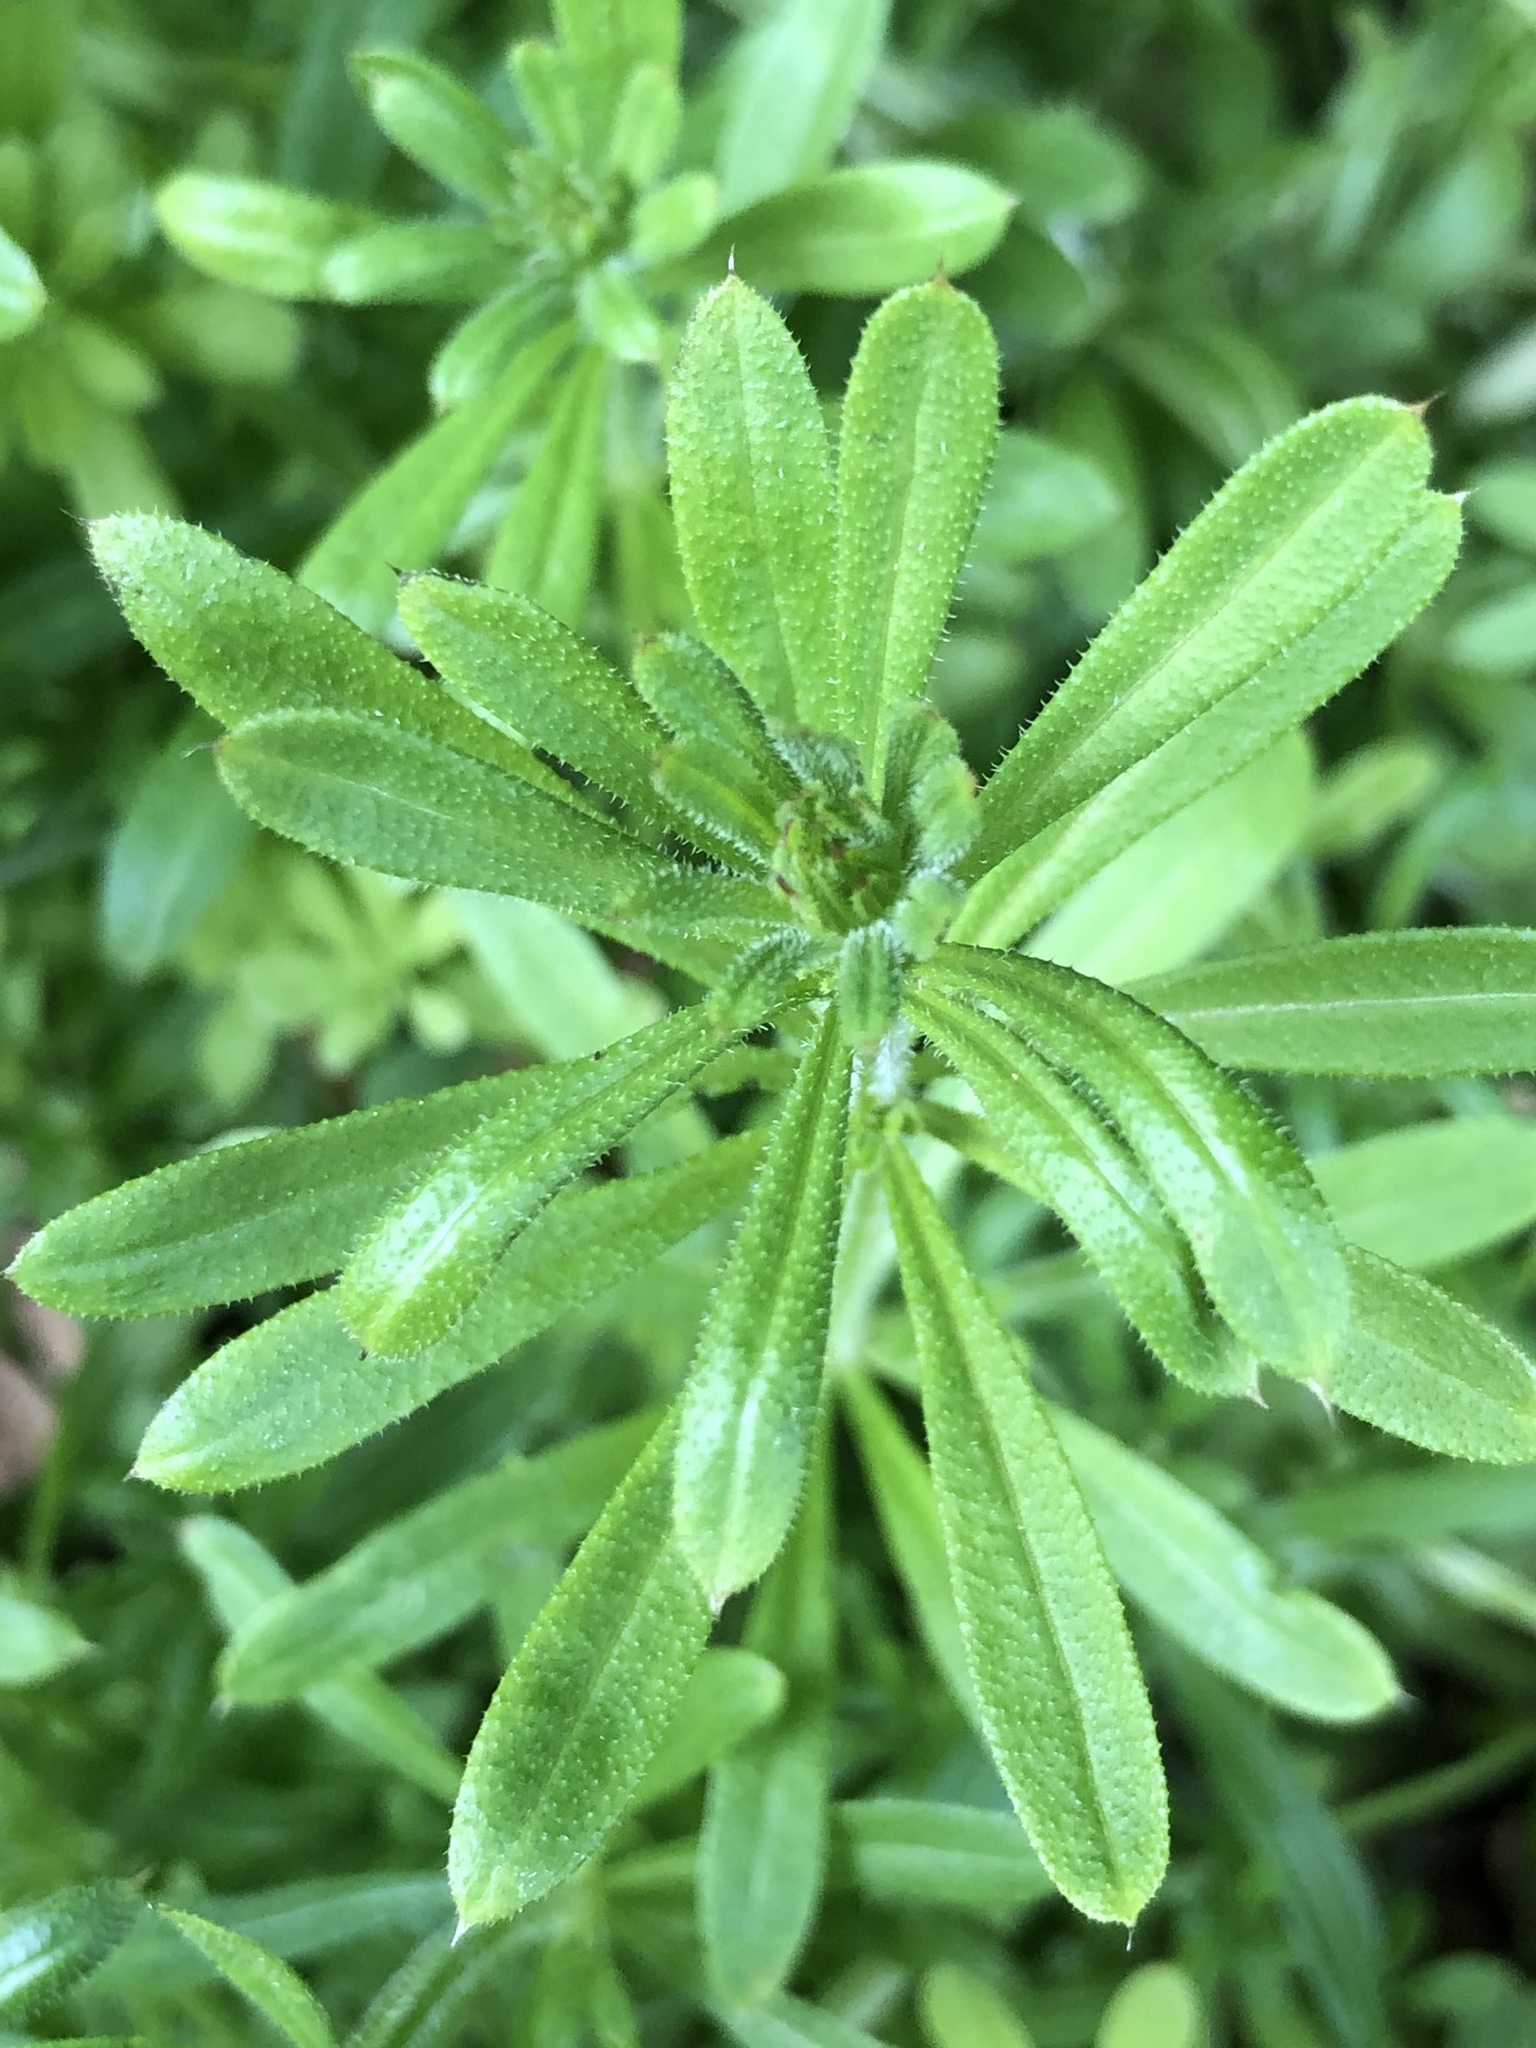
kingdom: Plantae
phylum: Tracheophyta
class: Magnoliopsida
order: Gentianales
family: Rubiaceae
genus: Galium
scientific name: Galium aparine
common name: Cleavers
